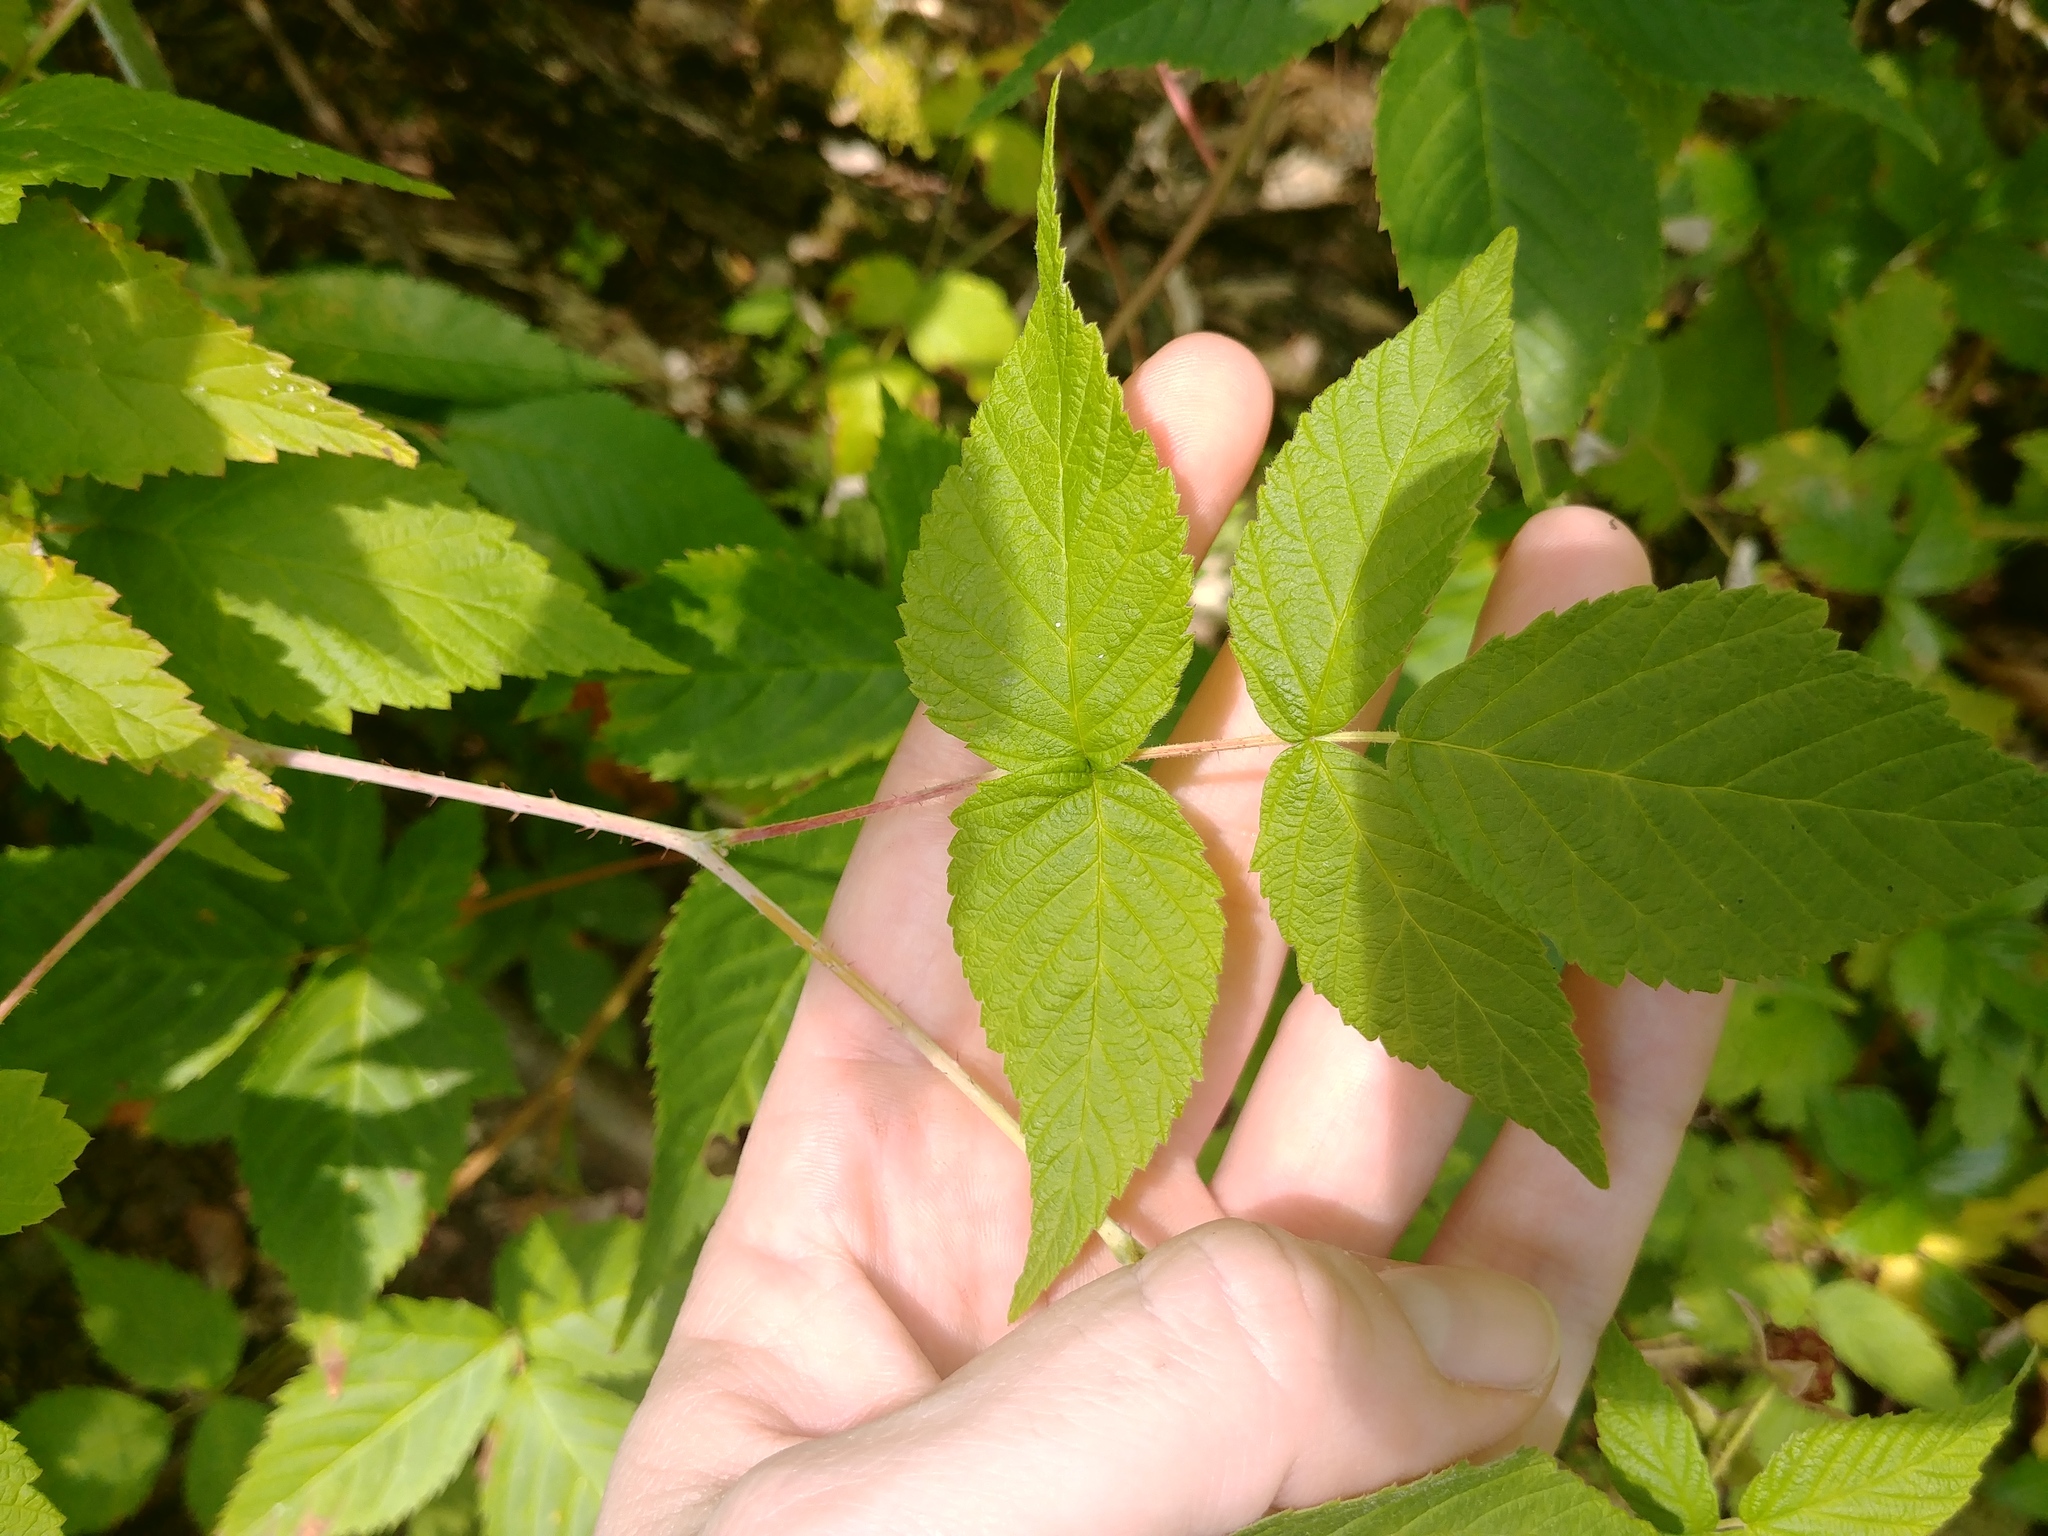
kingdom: Plantae
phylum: Tracheophyta
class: Magnoliopsida
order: Rosales
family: Rosaceae
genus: Rubus
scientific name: Rubus idaeus
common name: Raspberry
